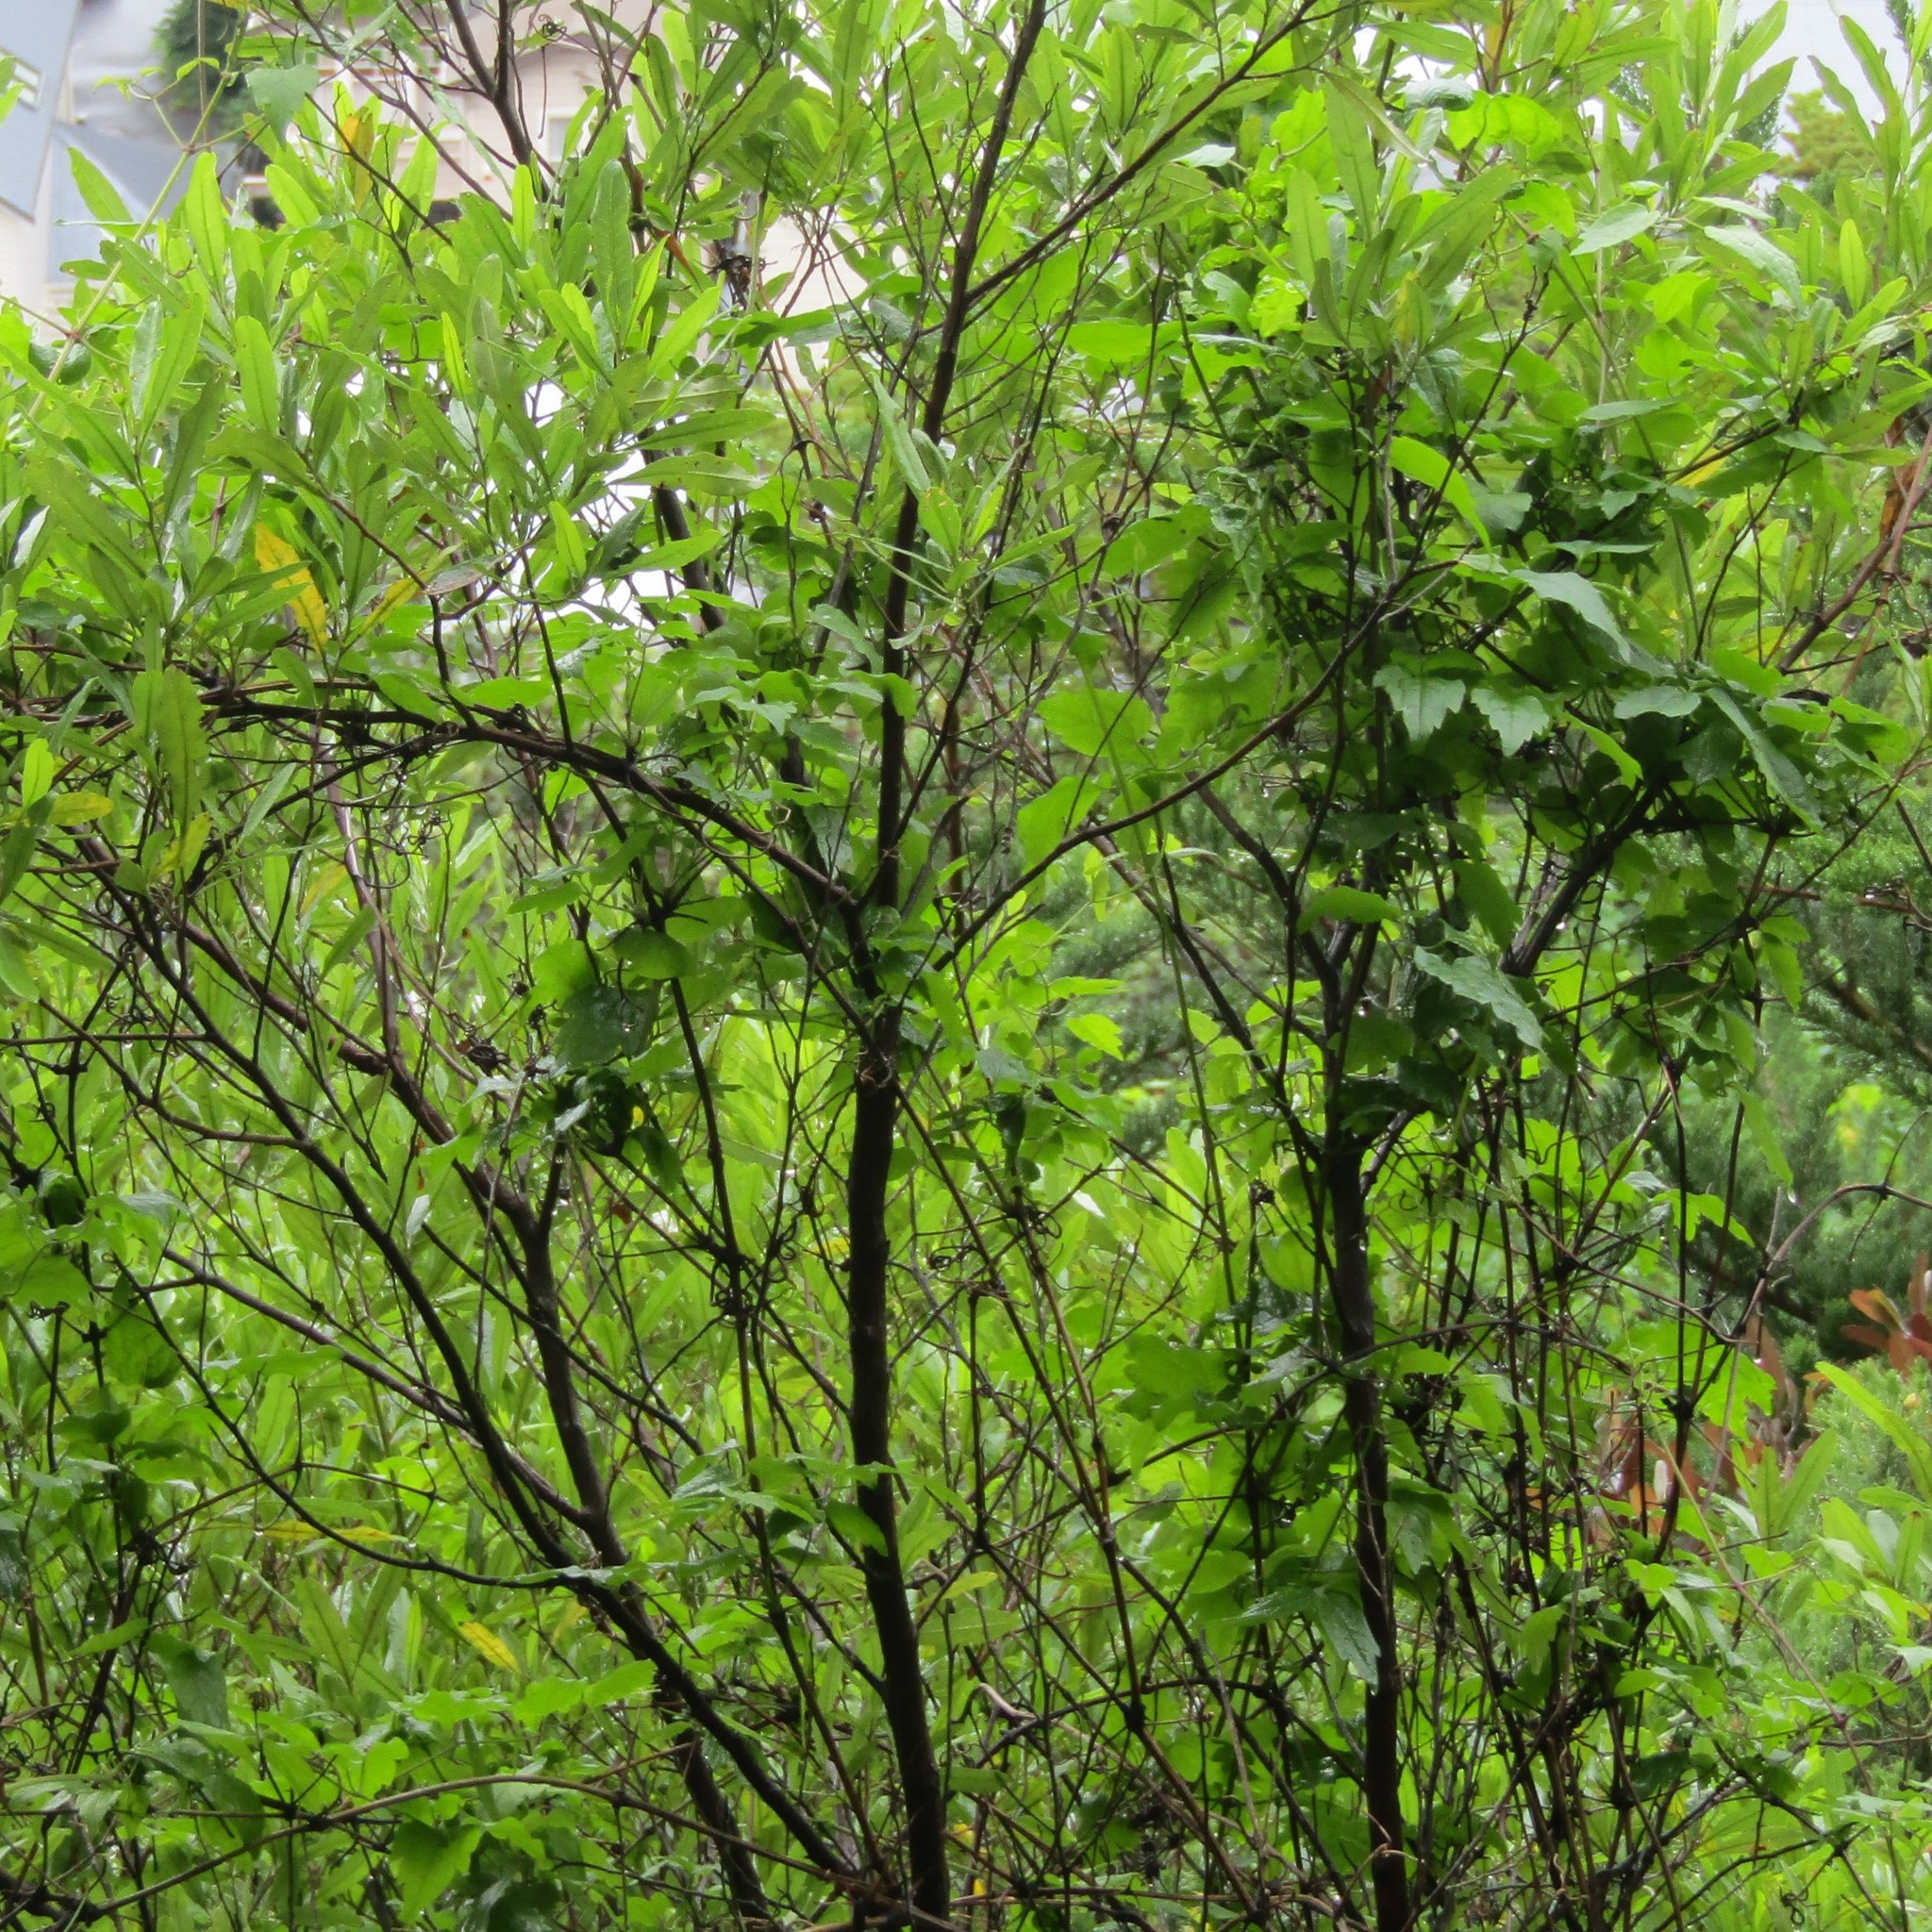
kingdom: Plantae
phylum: Tracheophyta
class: Magnoliopsida
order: Ranunculales
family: Ranunculaceae
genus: Clematis
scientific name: Clematis vitalba
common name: Evergreen clematis
